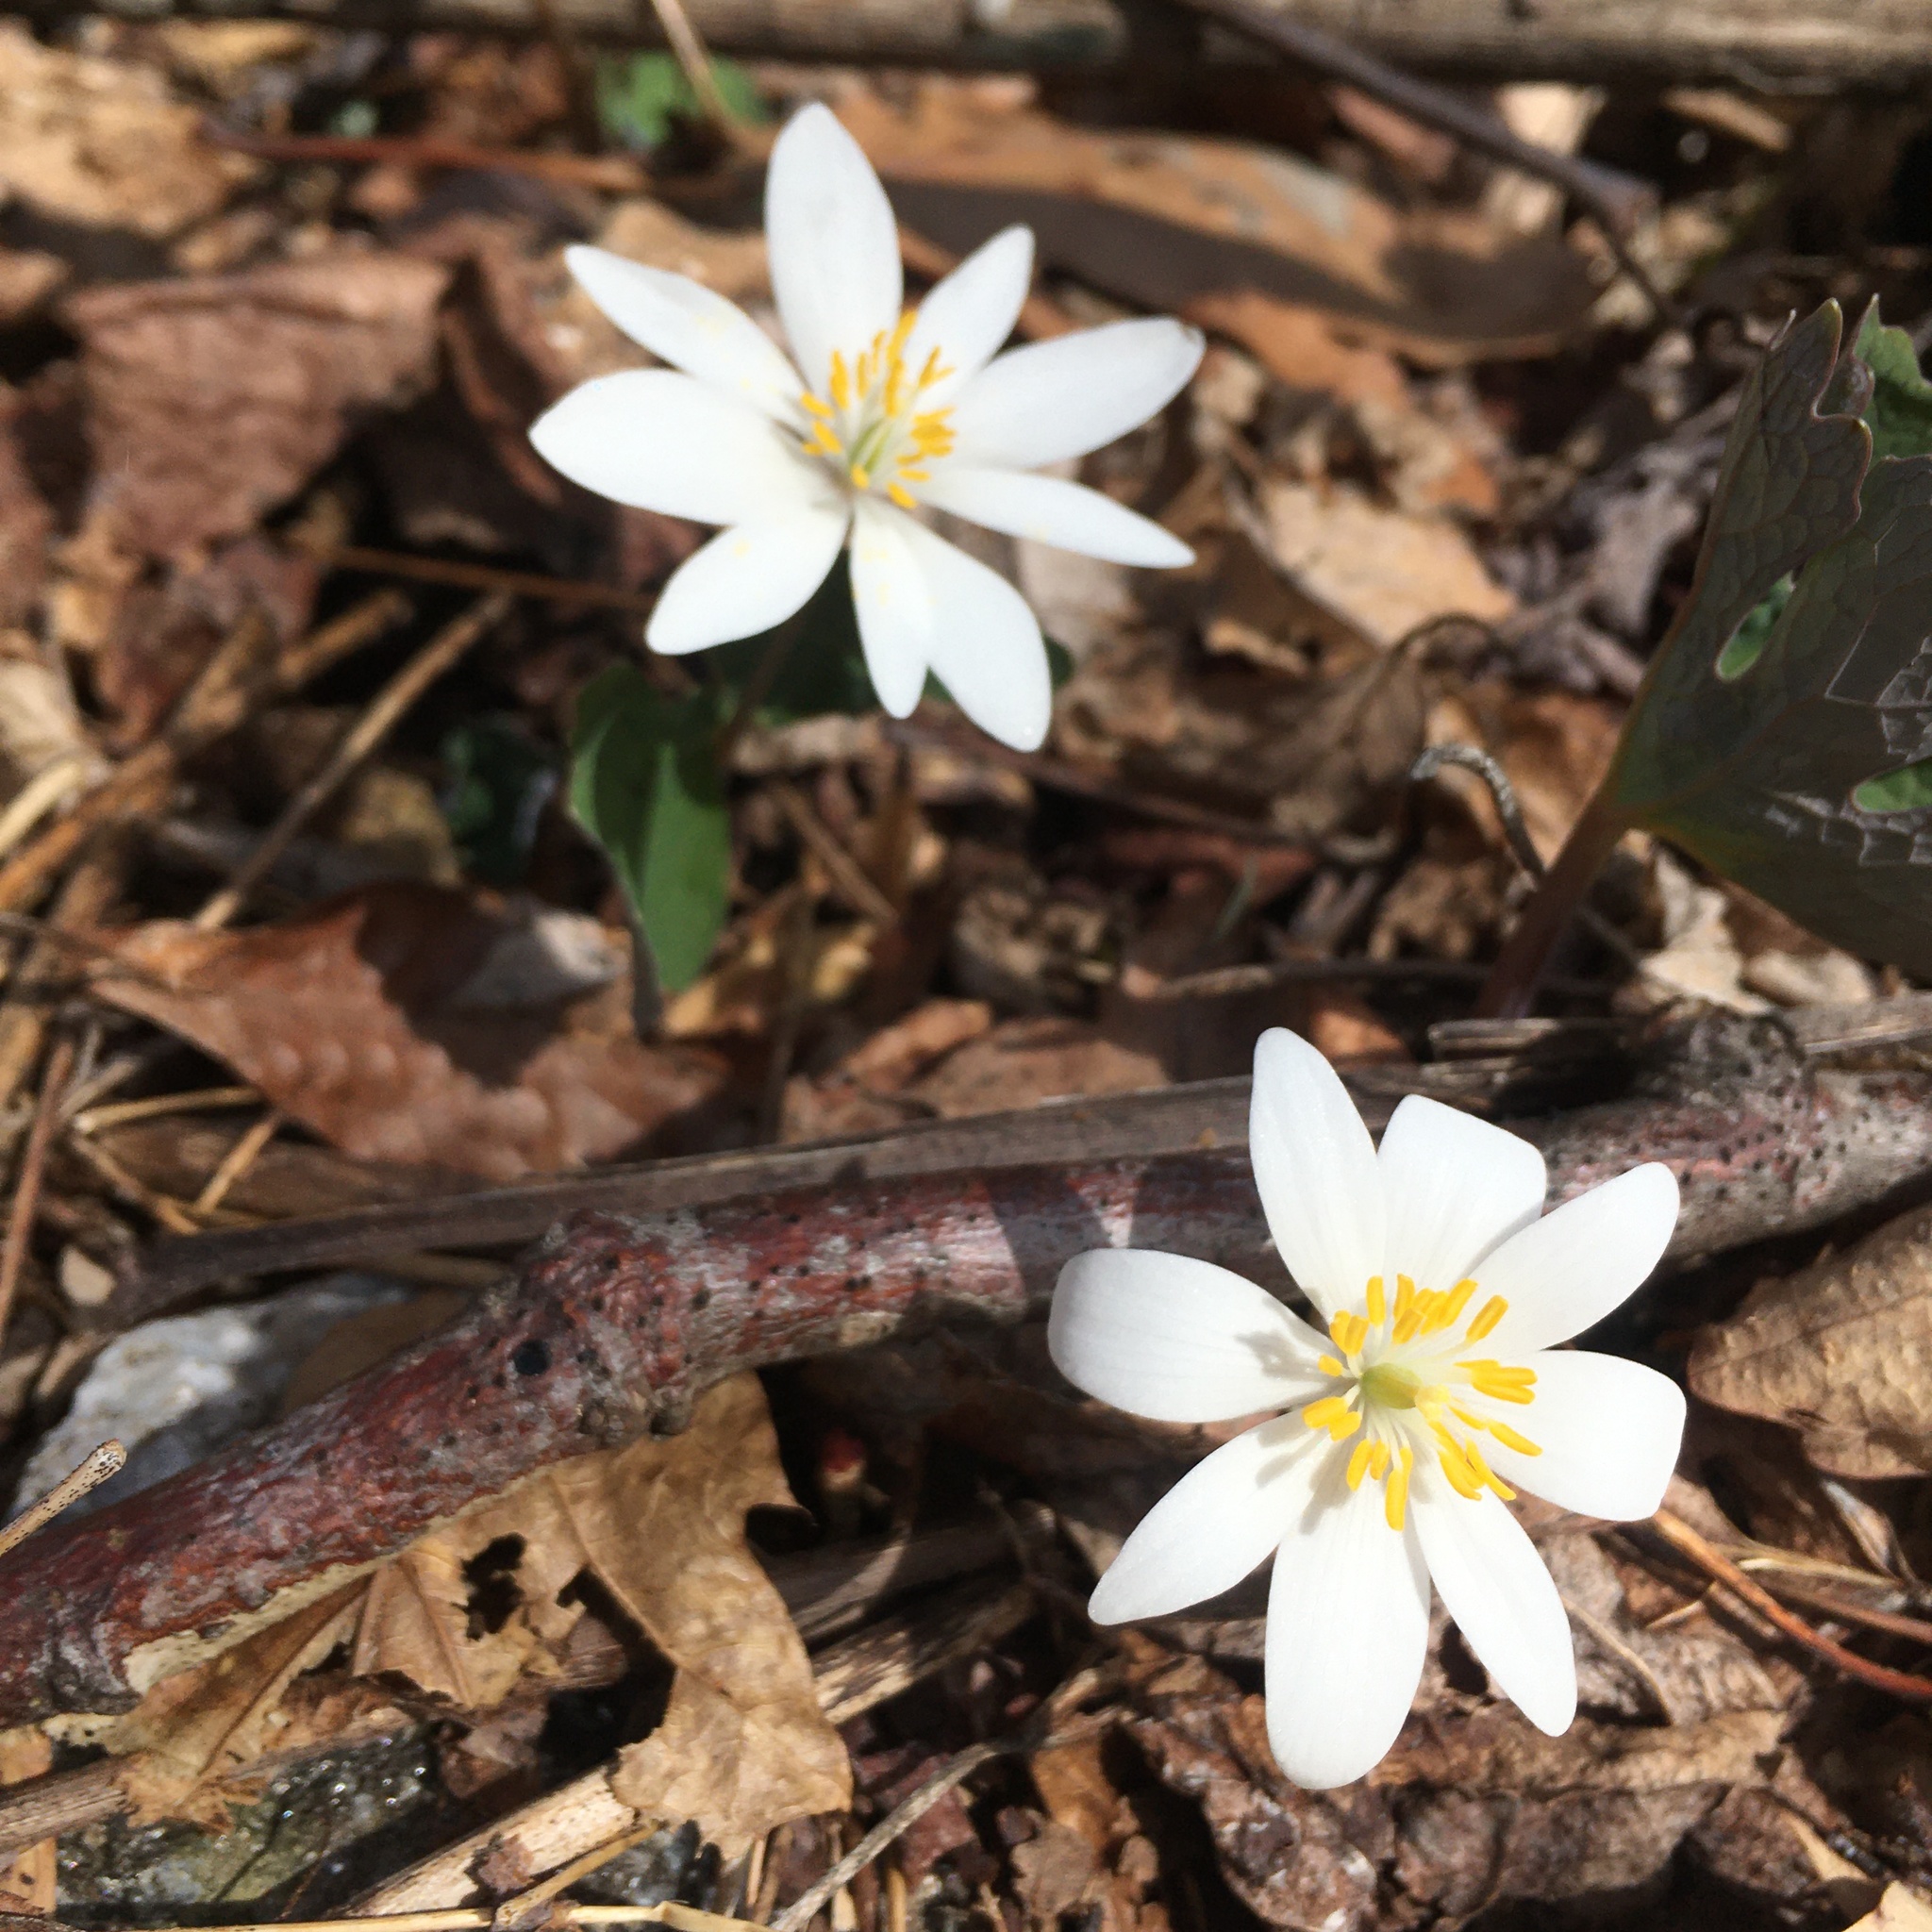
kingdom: Plantae
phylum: Tracheophyta
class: Magnoliopsida
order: Ranunculales
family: Papaveraceae
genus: Sanguinaria
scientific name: Sanguinaria canadensis
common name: Bloodroot
